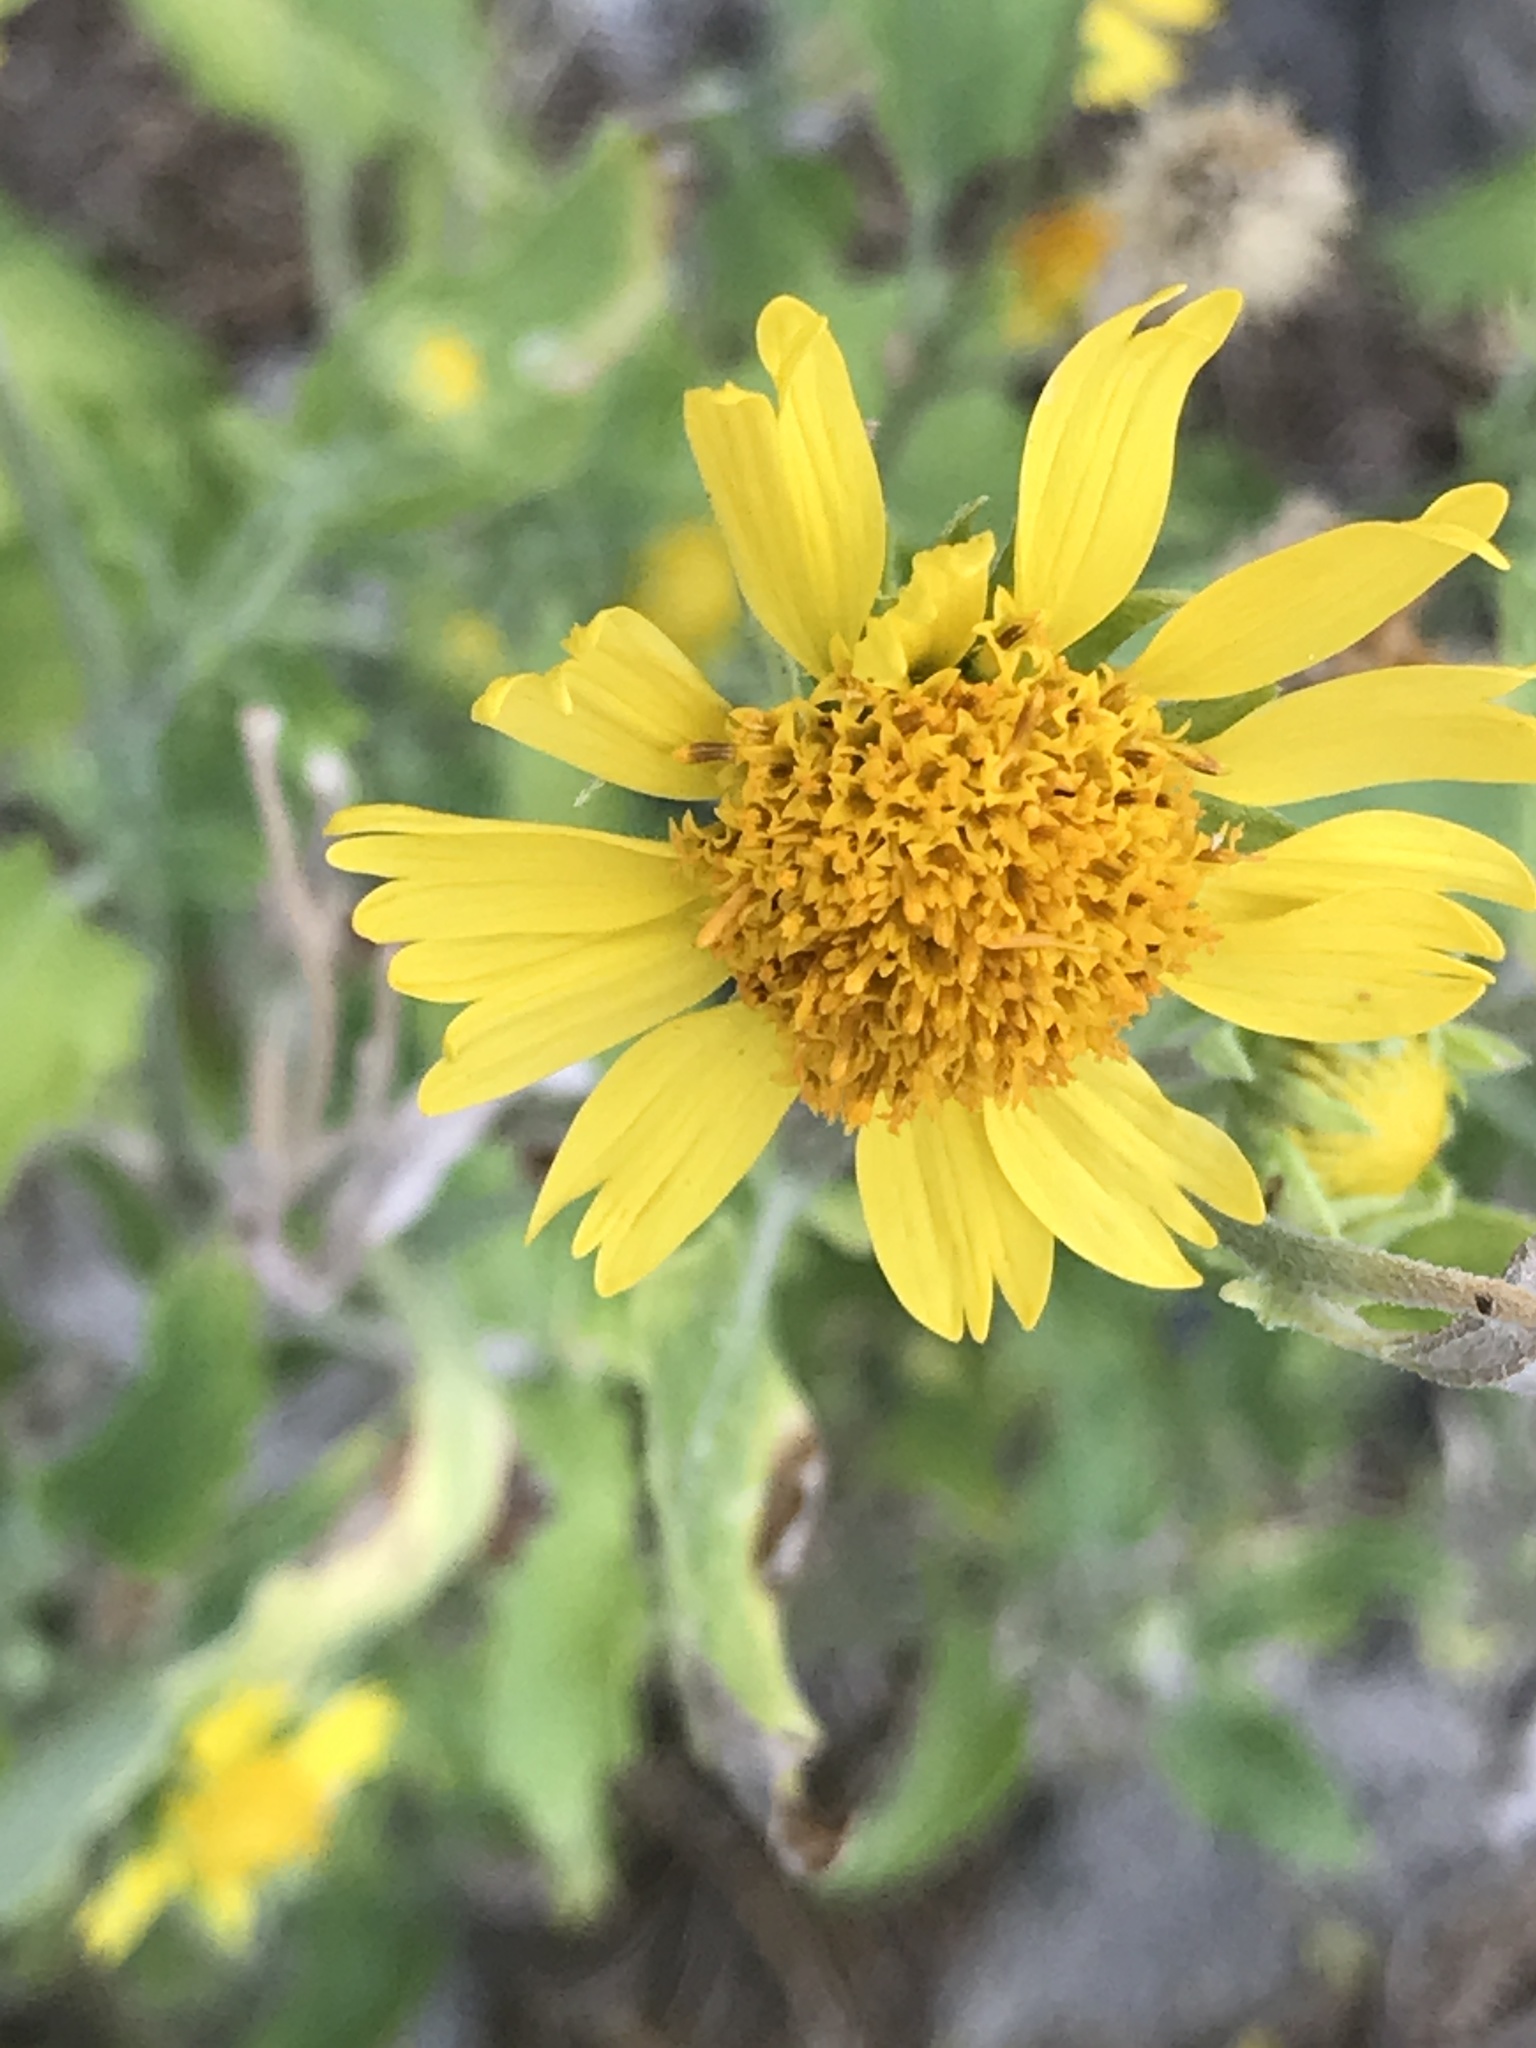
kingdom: Plantae
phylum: Tracheophyta
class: Magnoliopsida
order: Asterales
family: Asteraceae
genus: Verbesina
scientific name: Verbesina encelioides
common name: Golden crownbeard
